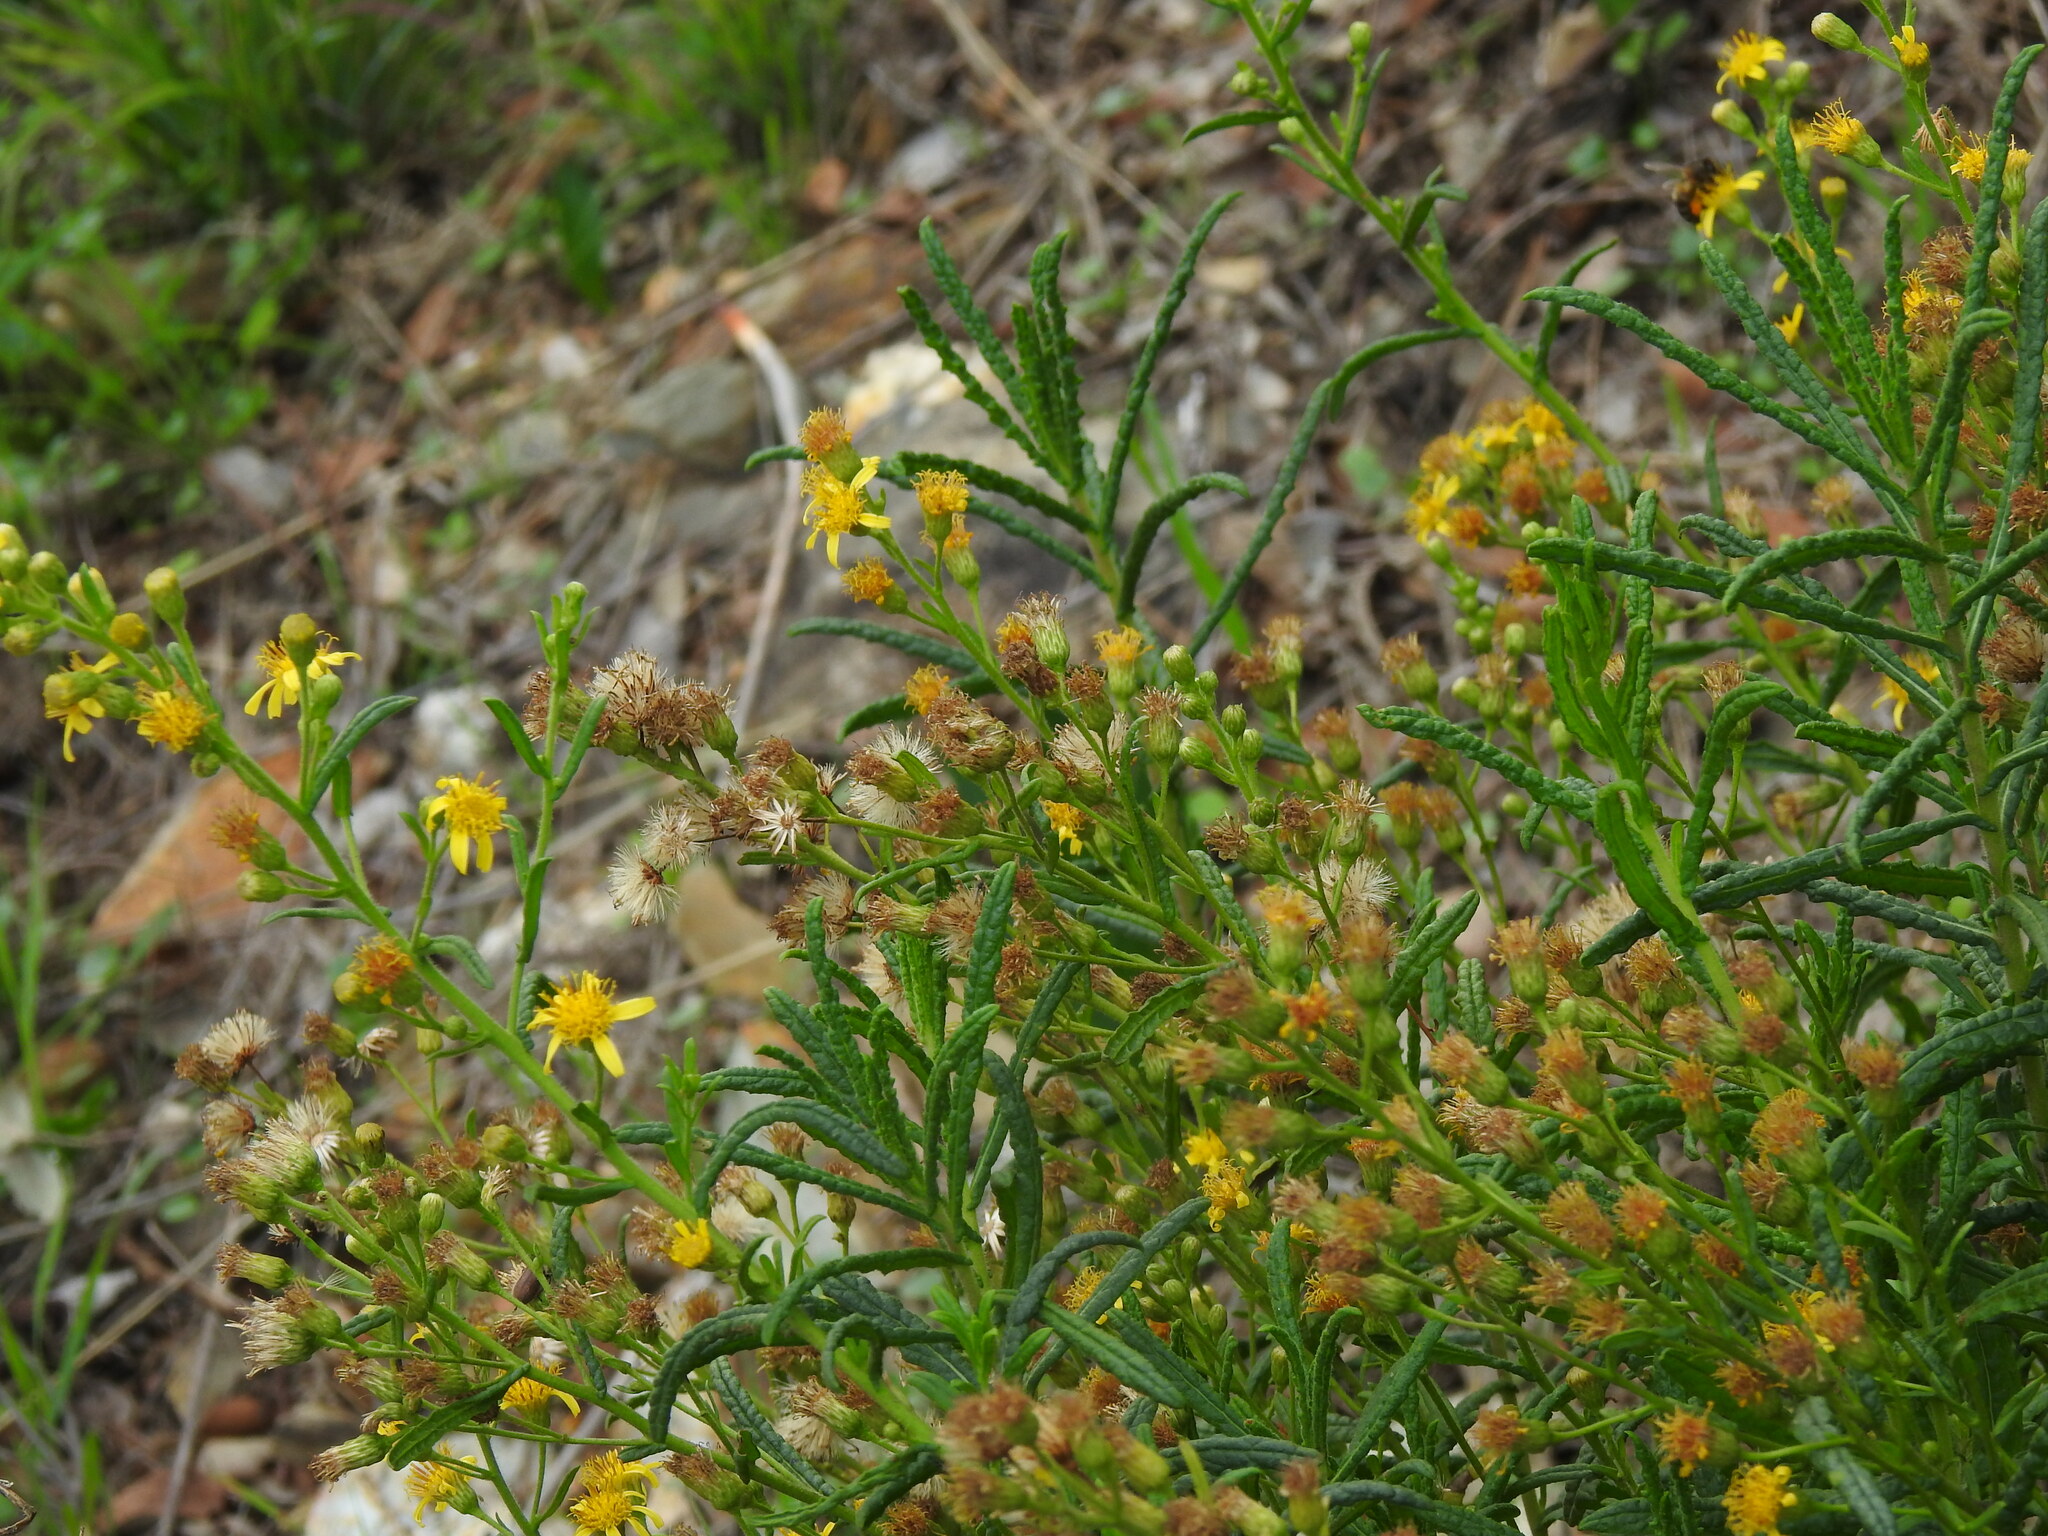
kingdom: Plantae
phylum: Tracheophyta
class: Magnoliopsida
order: Asterales
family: Asteraceae
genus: Dittrichia
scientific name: Dittrichia viscosa
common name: Woody fleabane
